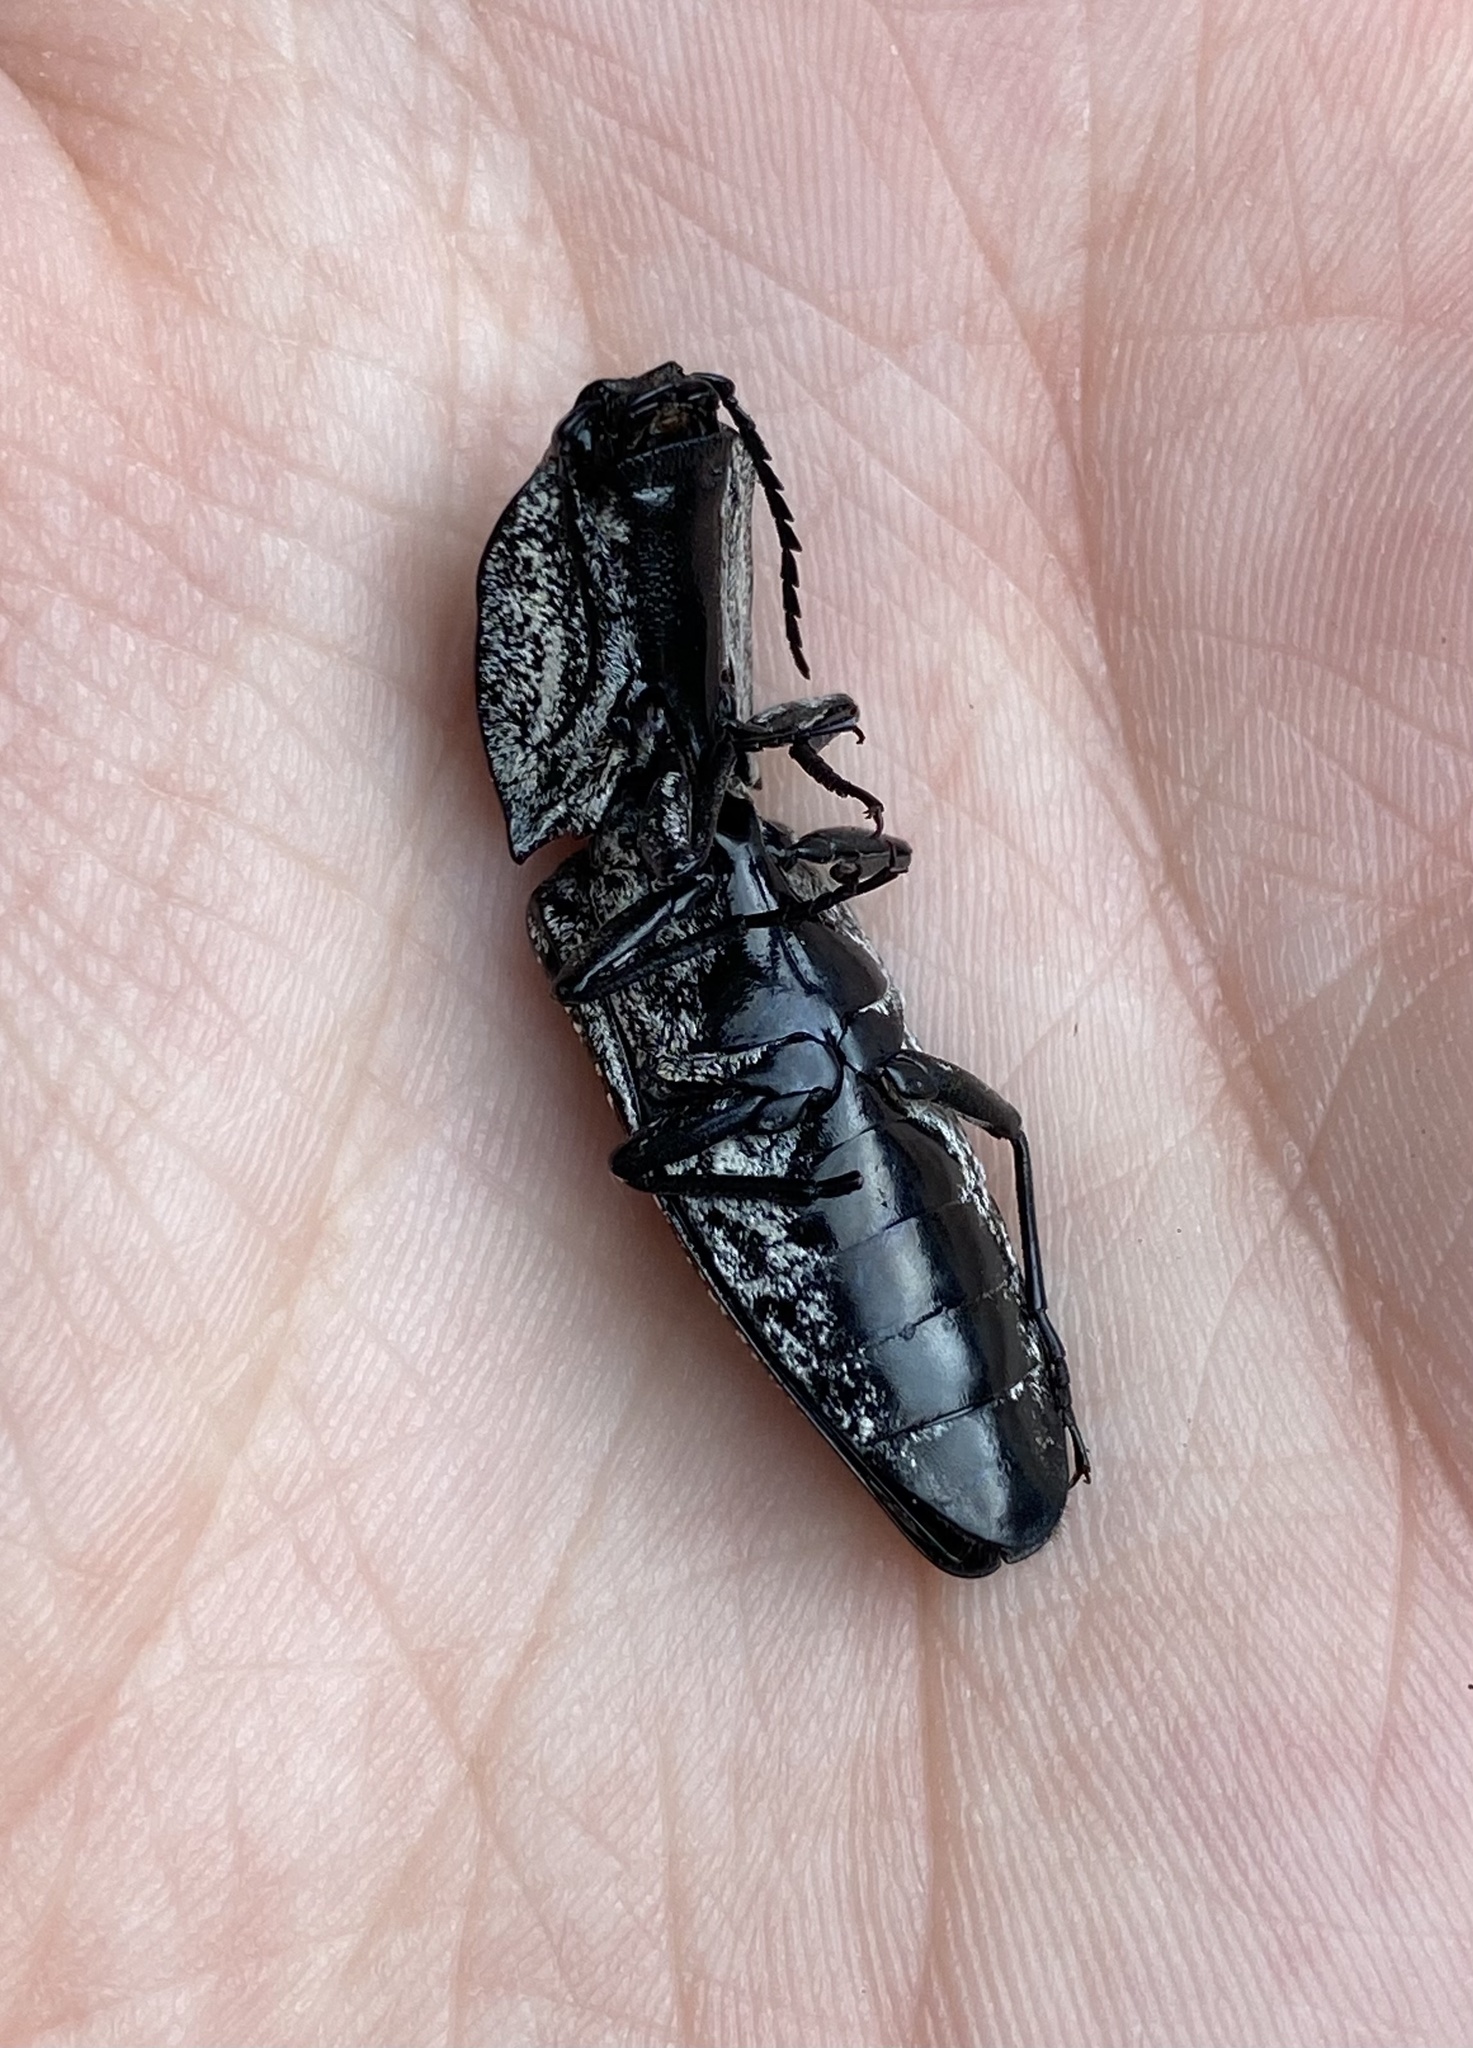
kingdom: Animalia
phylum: Arthropoda
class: Insecta
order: Coleoptera
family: Elateridae
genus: Alaus
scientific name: Alaus oculatus
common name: Eastern eyed click beetle
